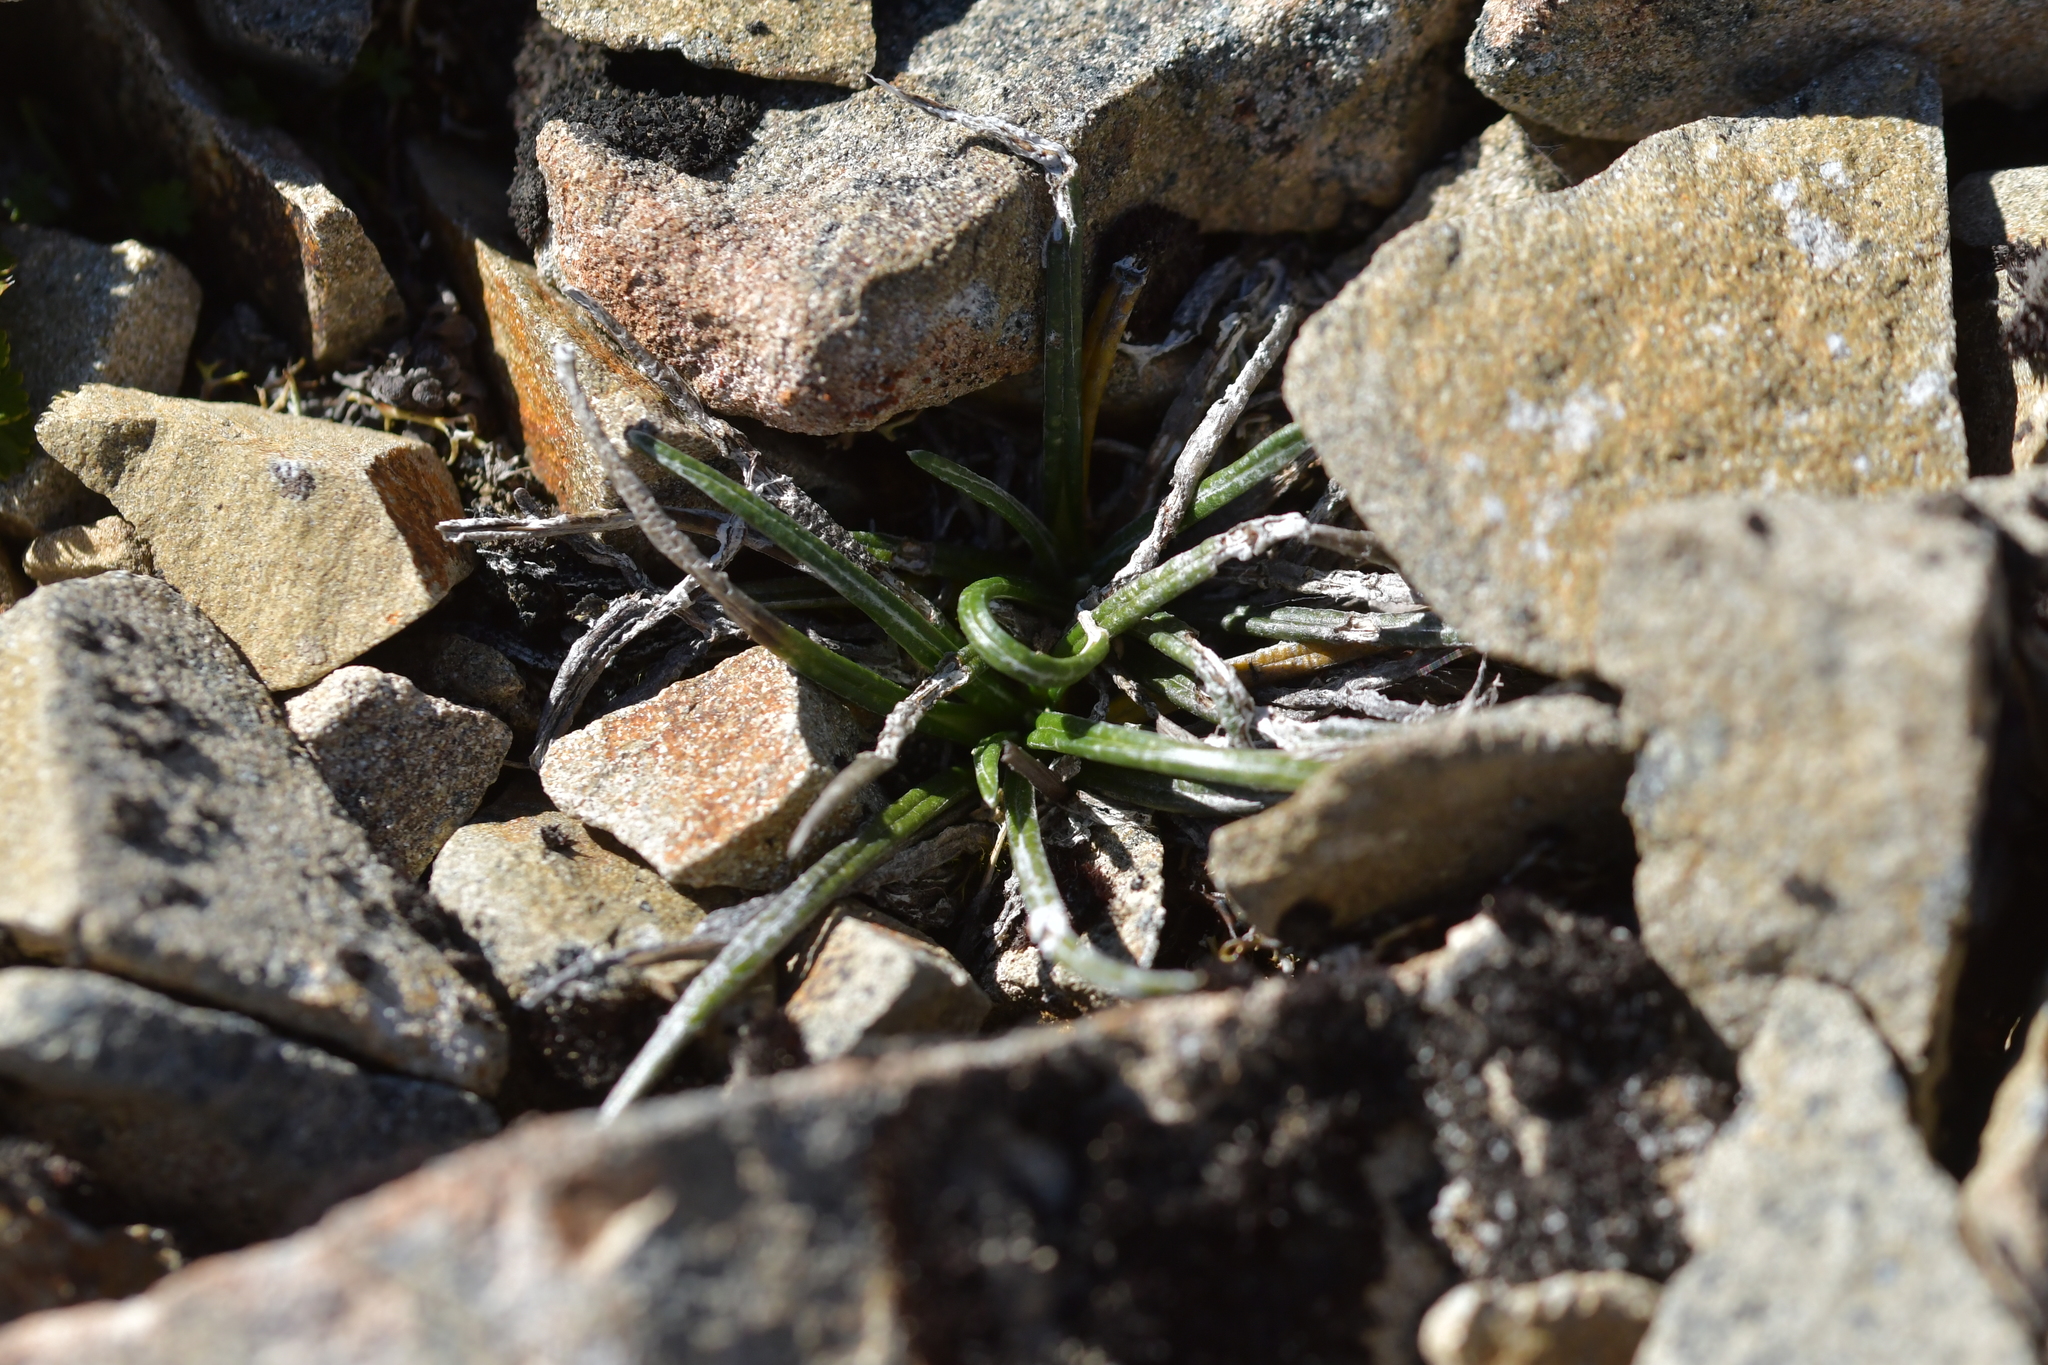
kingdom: Plantae
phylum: Tracheophyta
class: Magnoliopsida
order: Asterales
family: Asteraceae
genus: Celmisia
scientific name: Celmisia gracilenta
